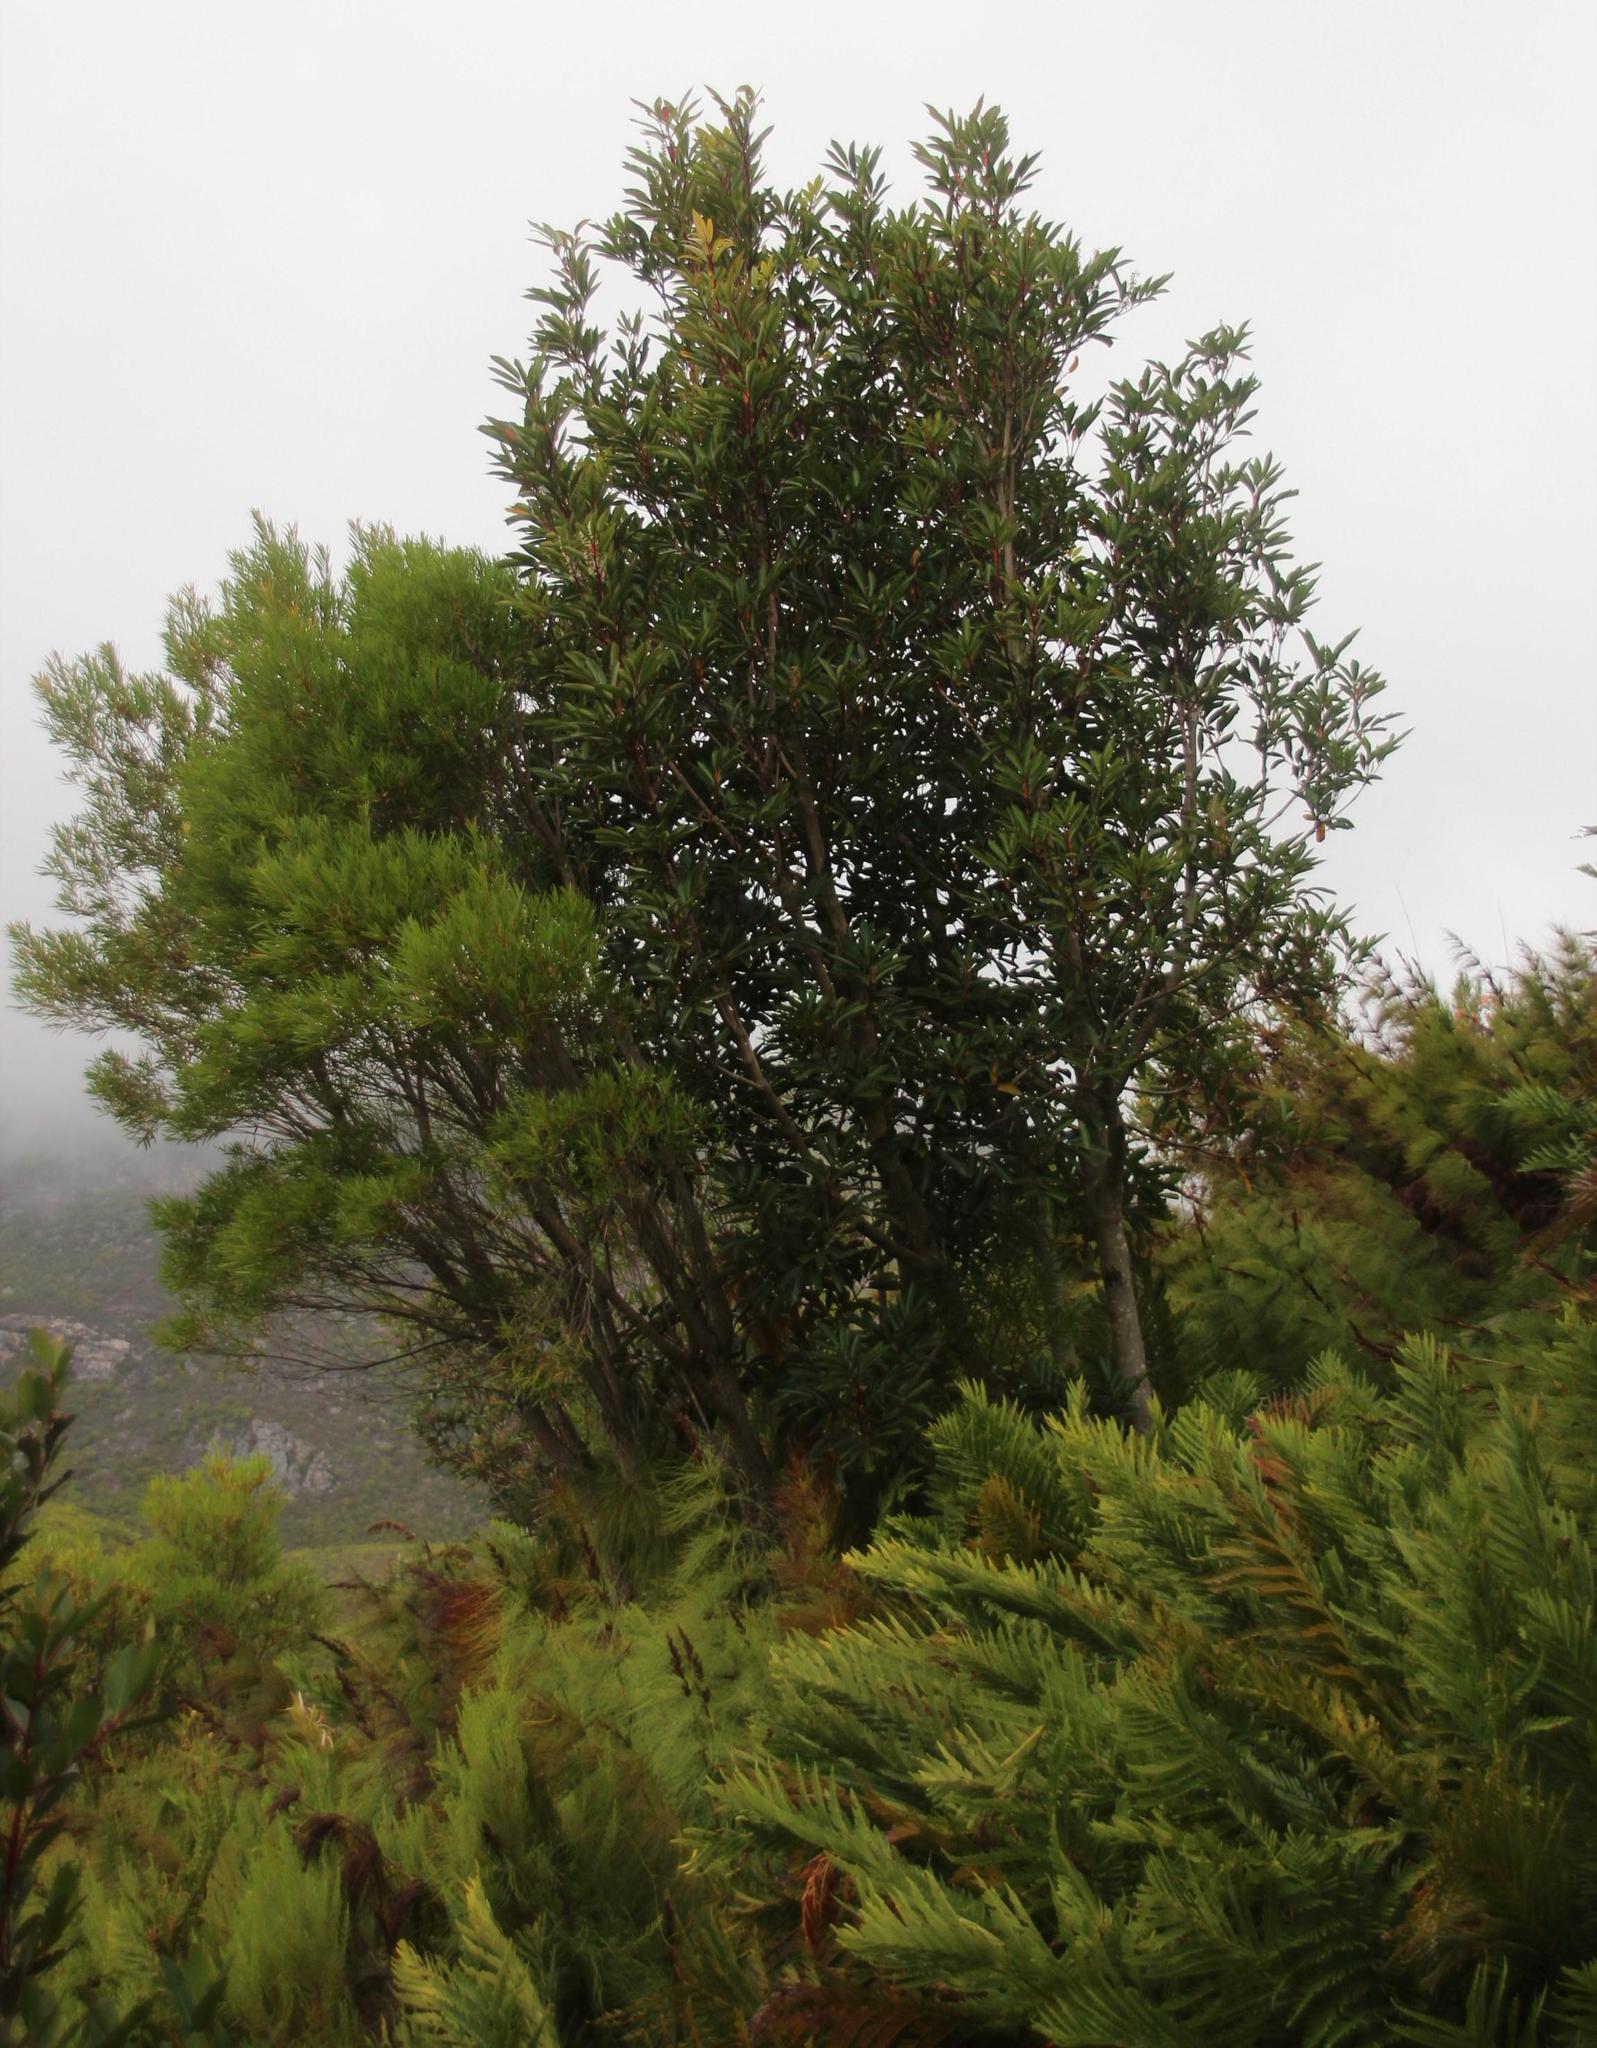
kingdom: Plantae
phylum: Tracheophyta
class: Magnoliopsida
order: Oxalidales
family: Cunoniaceae
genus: Cunonia
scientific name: Cunonia capensis
